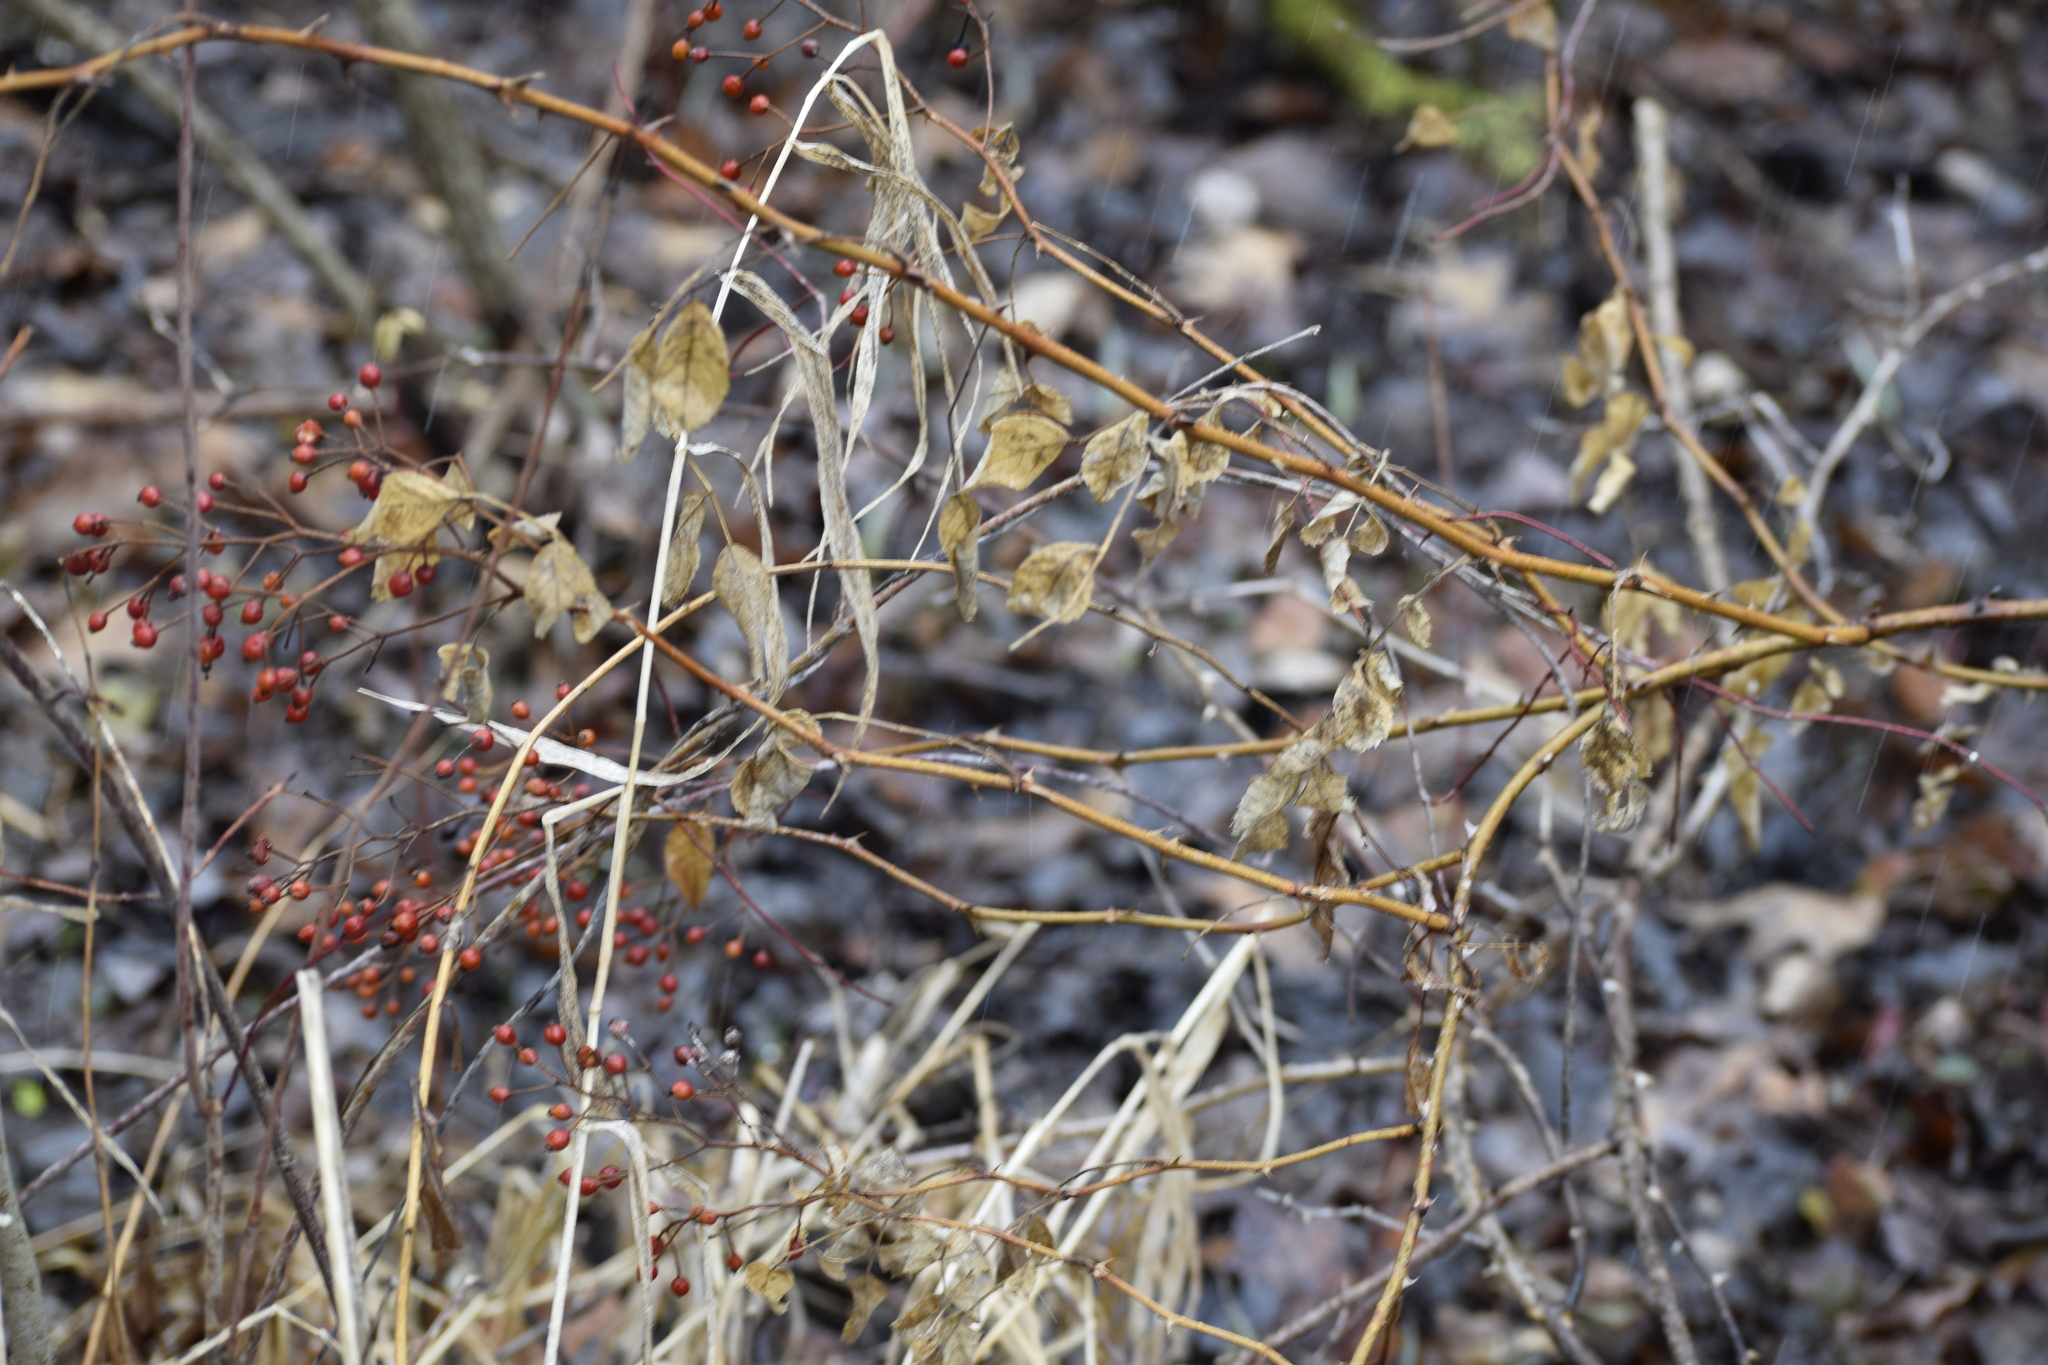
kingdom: Plantae
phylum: Tracheophyta
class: Magnoliopsida
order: Rosales
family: Rosaceae
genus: Rosa
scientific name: Rosa multiflora
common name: Multiflora rose
